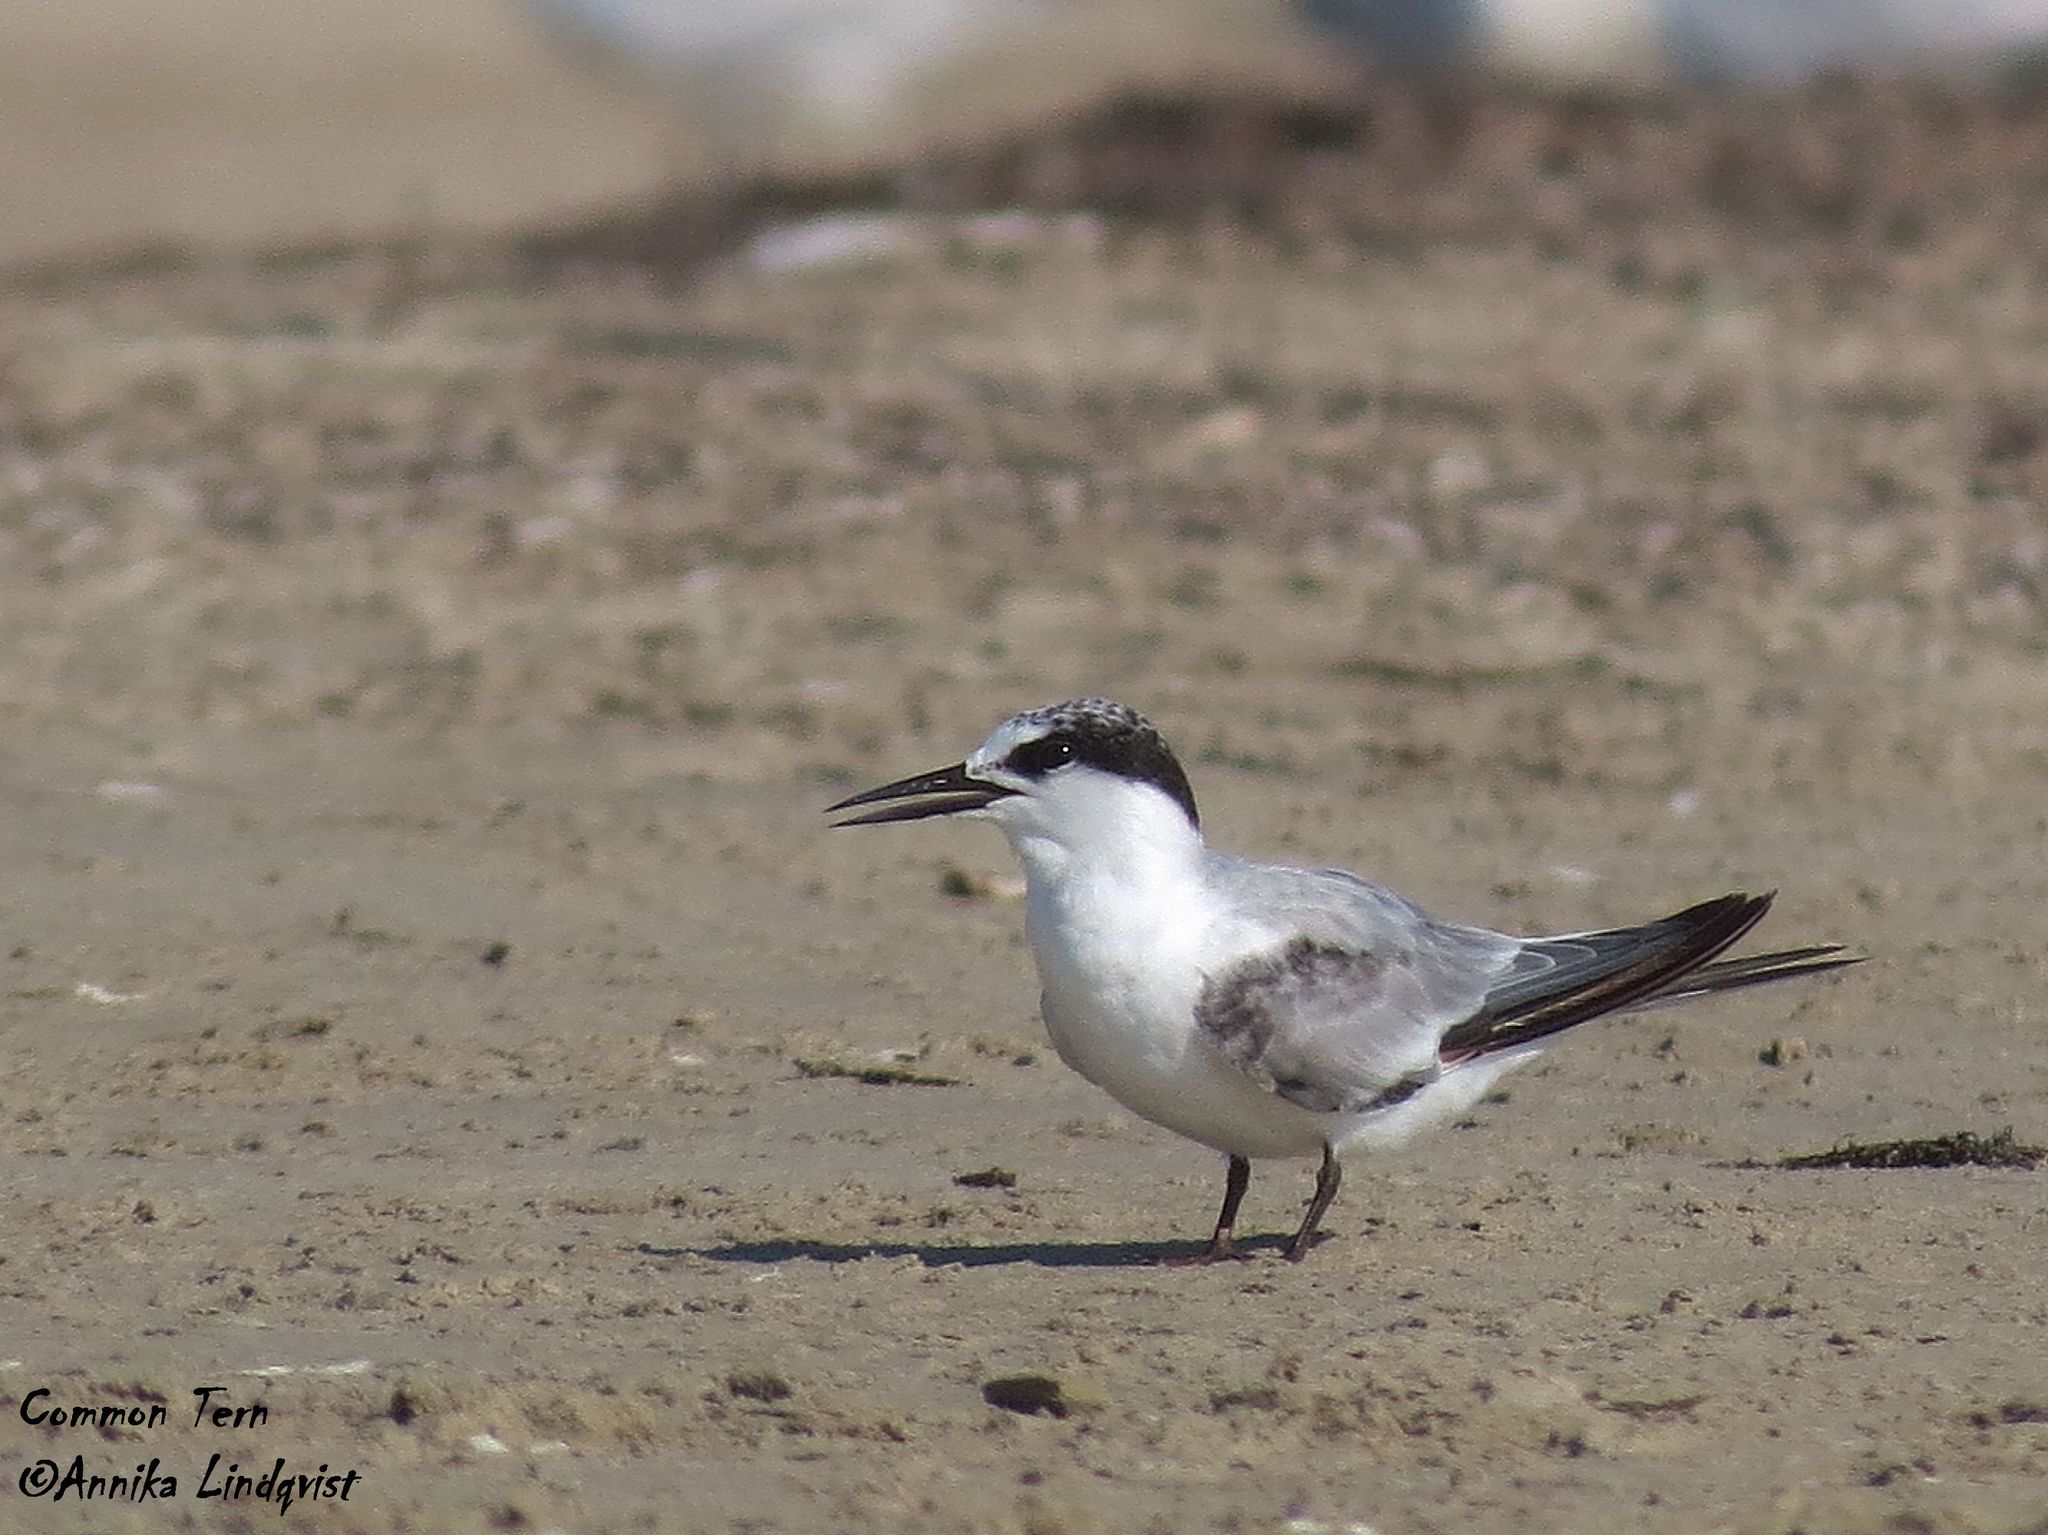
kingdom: Animalia
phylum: Chordata
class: Aves
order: Charadriiformes
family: Laridae
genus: Sterna
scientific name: Sterna hirundo
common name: Common tern
